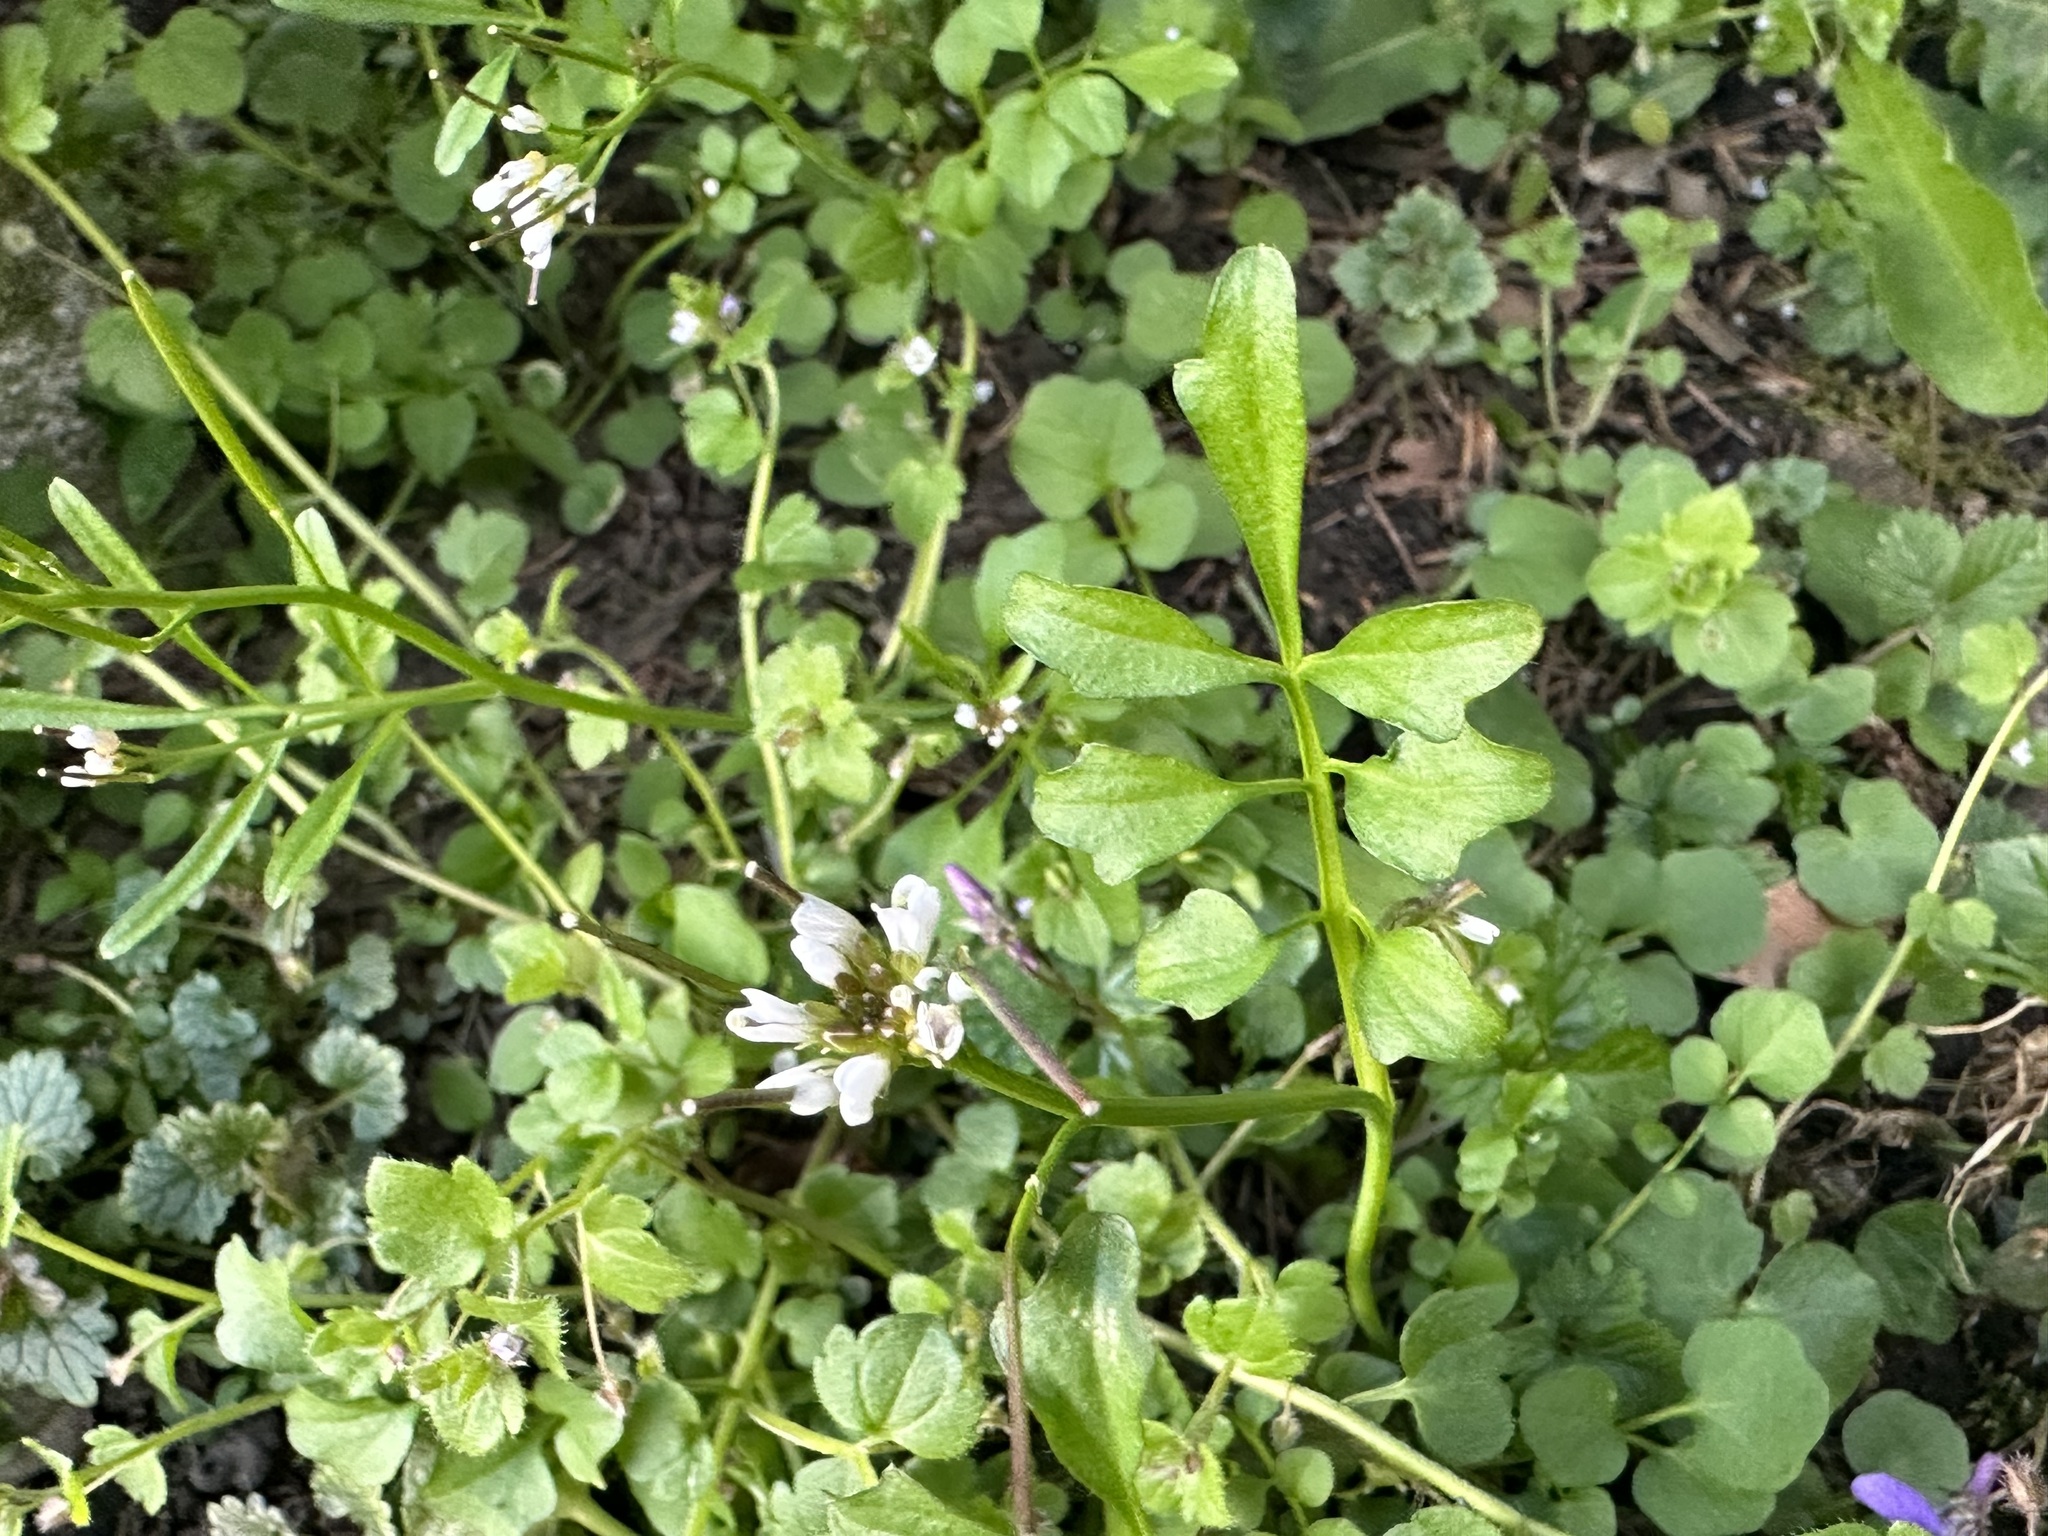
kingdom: Plantae
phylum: Tracheophyta
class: Magnoliopsida
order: Brassicales
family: Brassicaceae
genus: Cardamine
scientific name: Cardamine hirsuta
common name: Hairy bittercress
